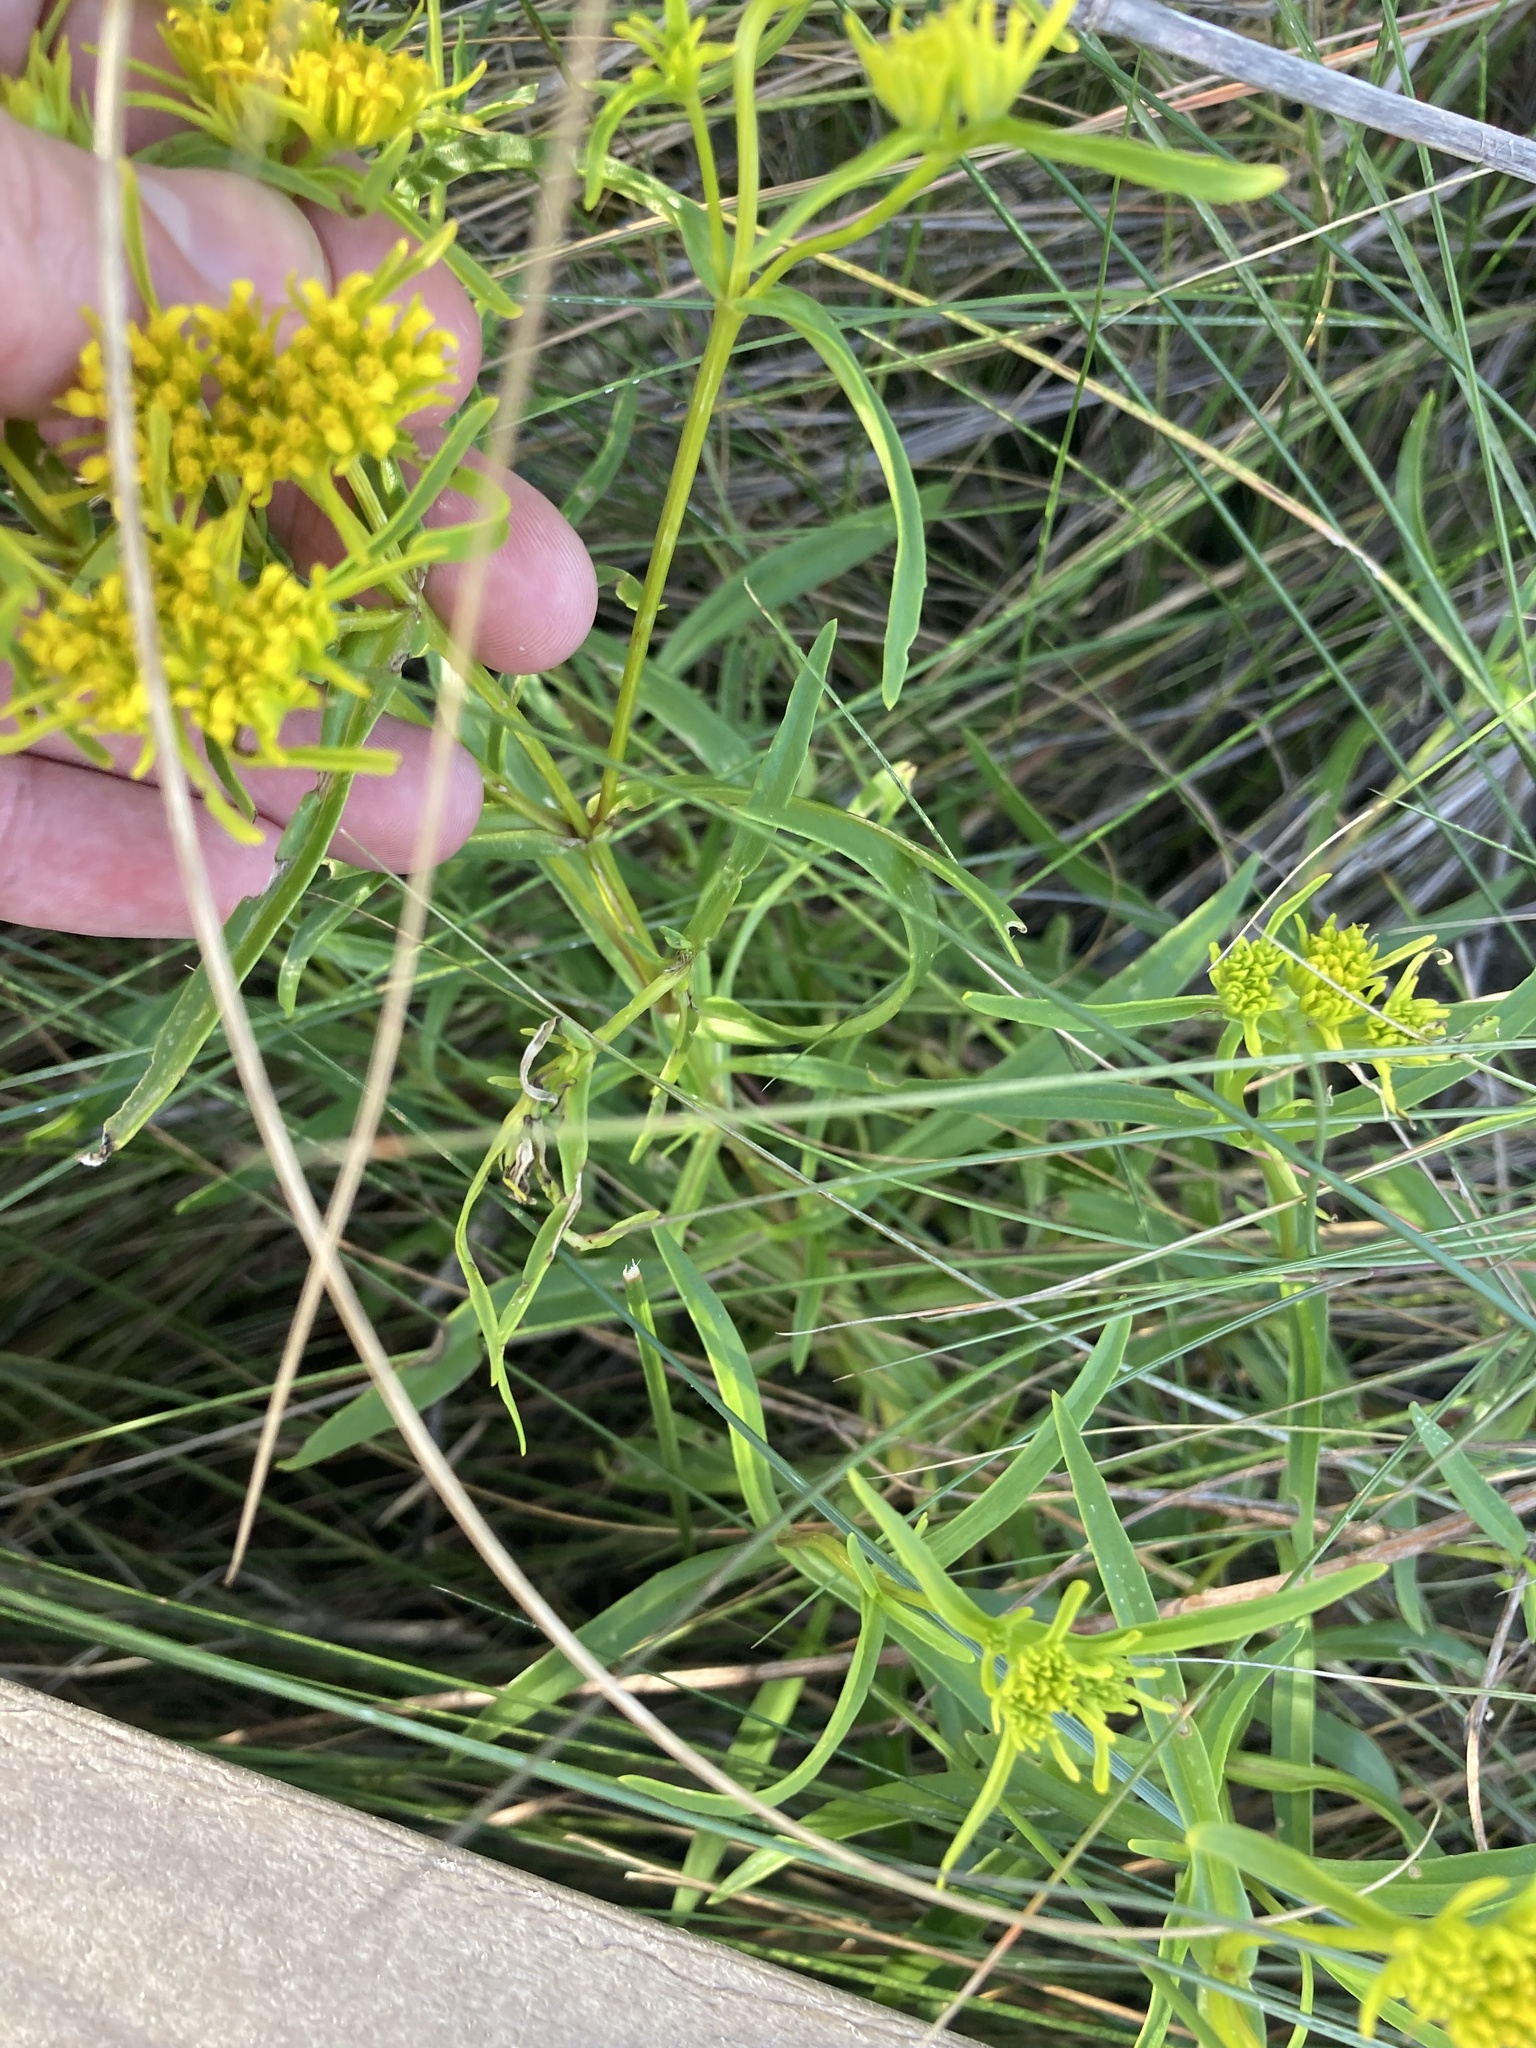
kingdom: Plantae
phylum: Tracheophyta
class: Magnoliopsida
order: Asterales
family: Asteraceae
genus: Flaveria
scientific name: Flaveria floridana
